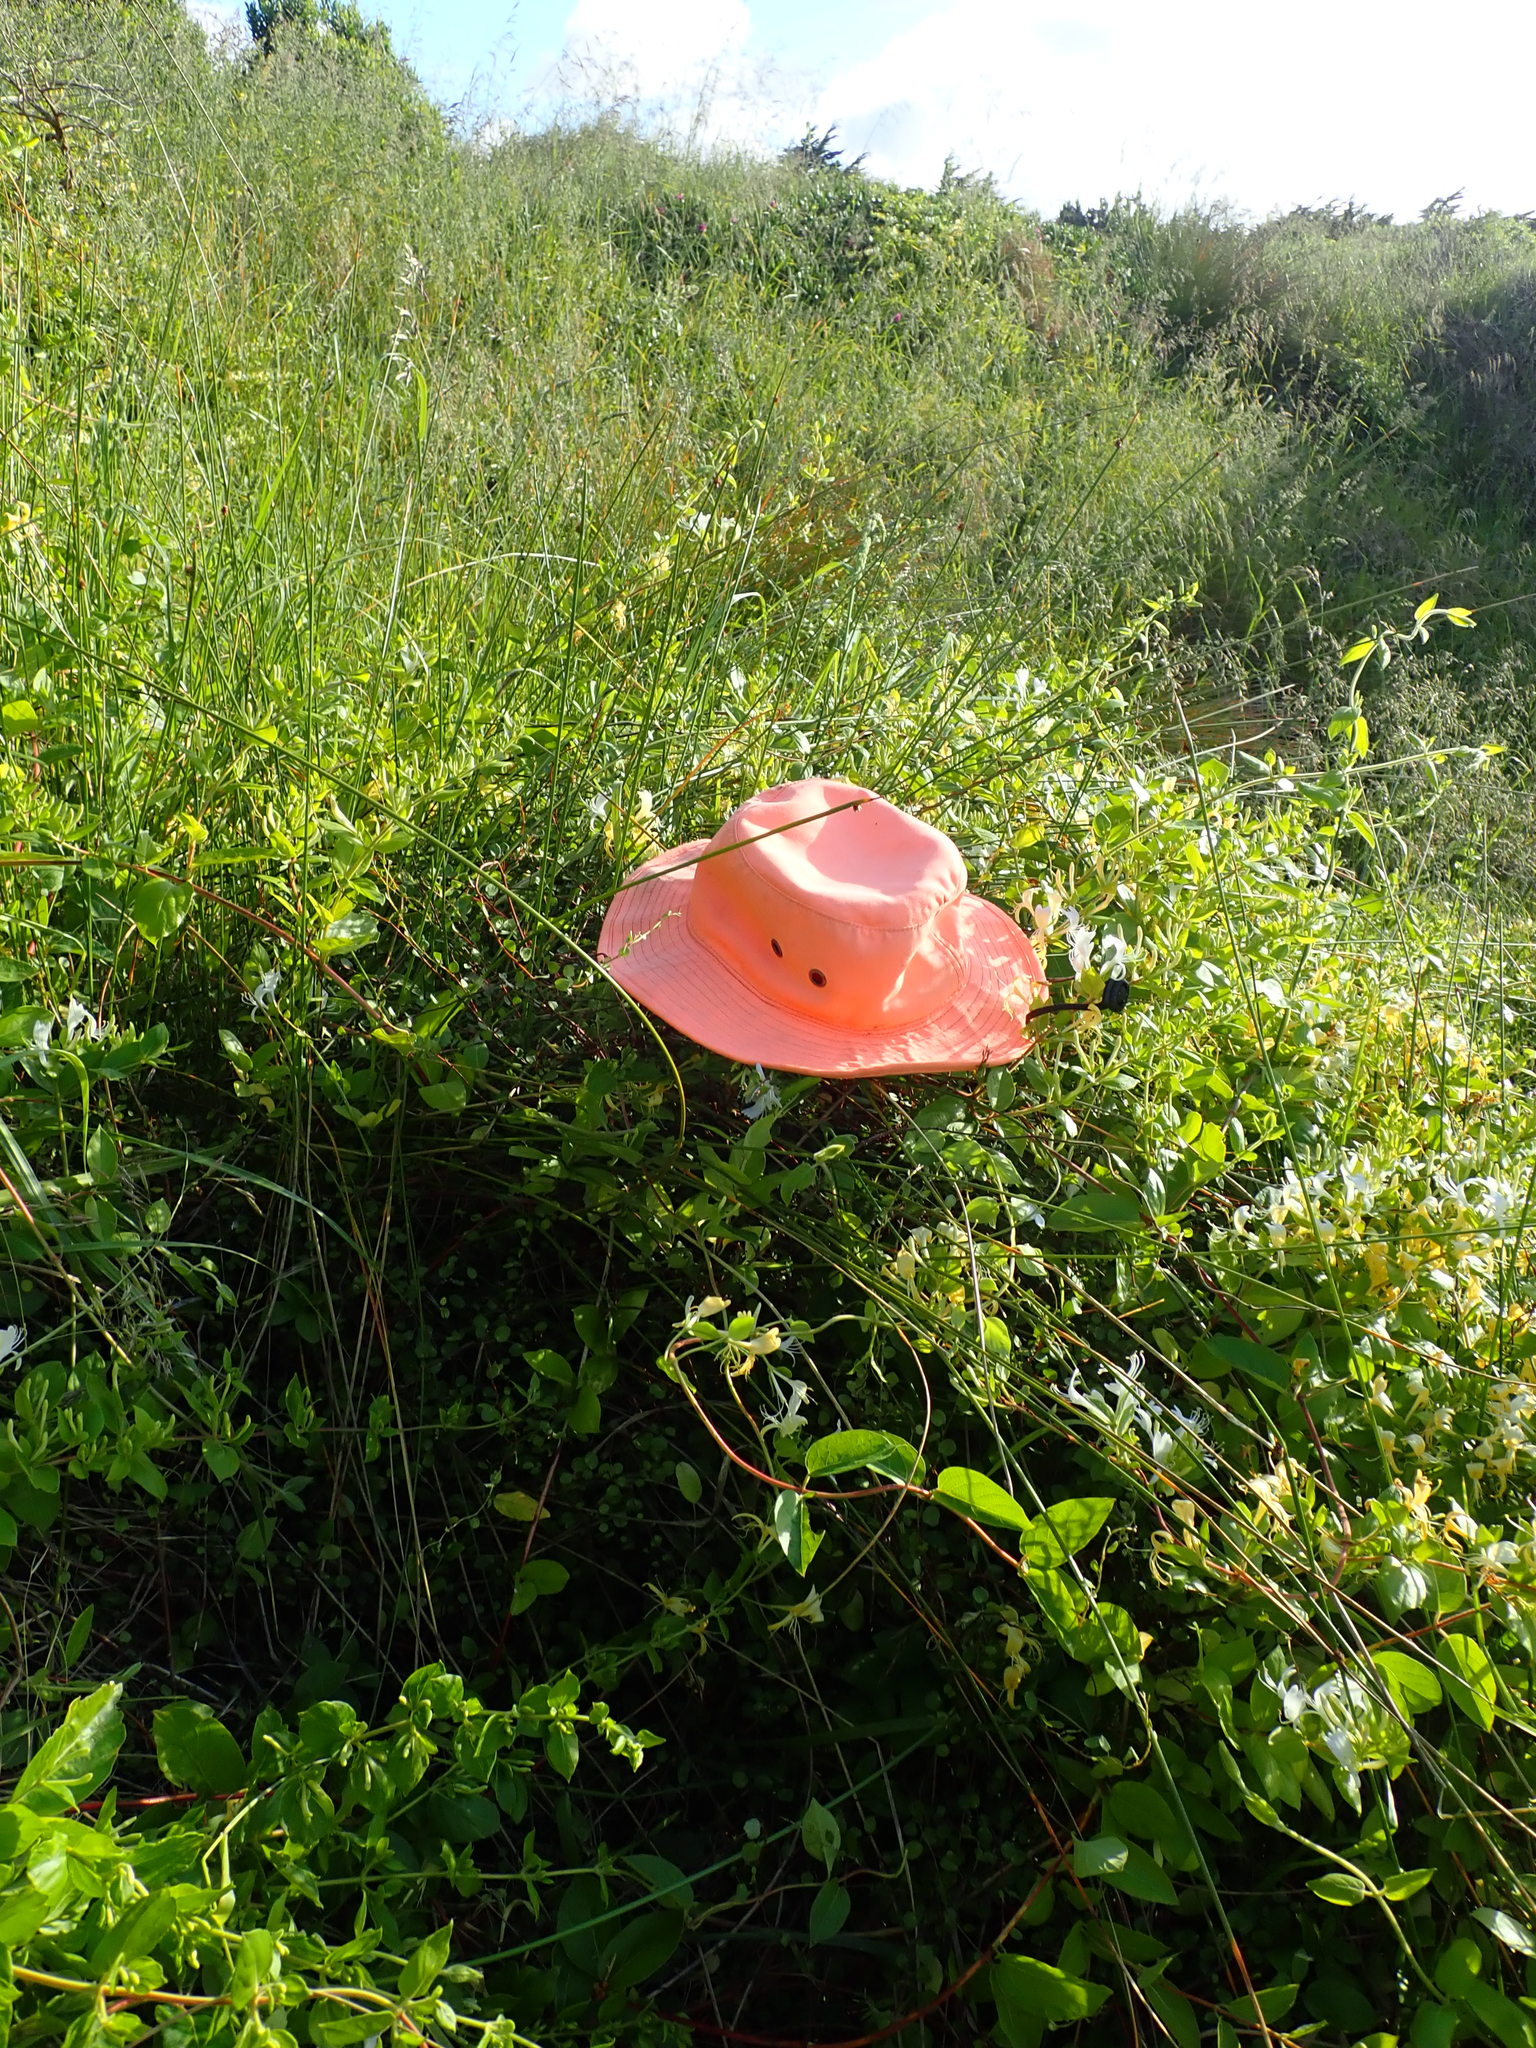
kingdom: Plantae
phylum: Tracheophyta
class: Magnoliopsida
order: Caryophyllales
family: Polygonaceae
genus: Muehlenbeckia
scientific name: Muehlenbeckia complexa
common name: Wireplant
